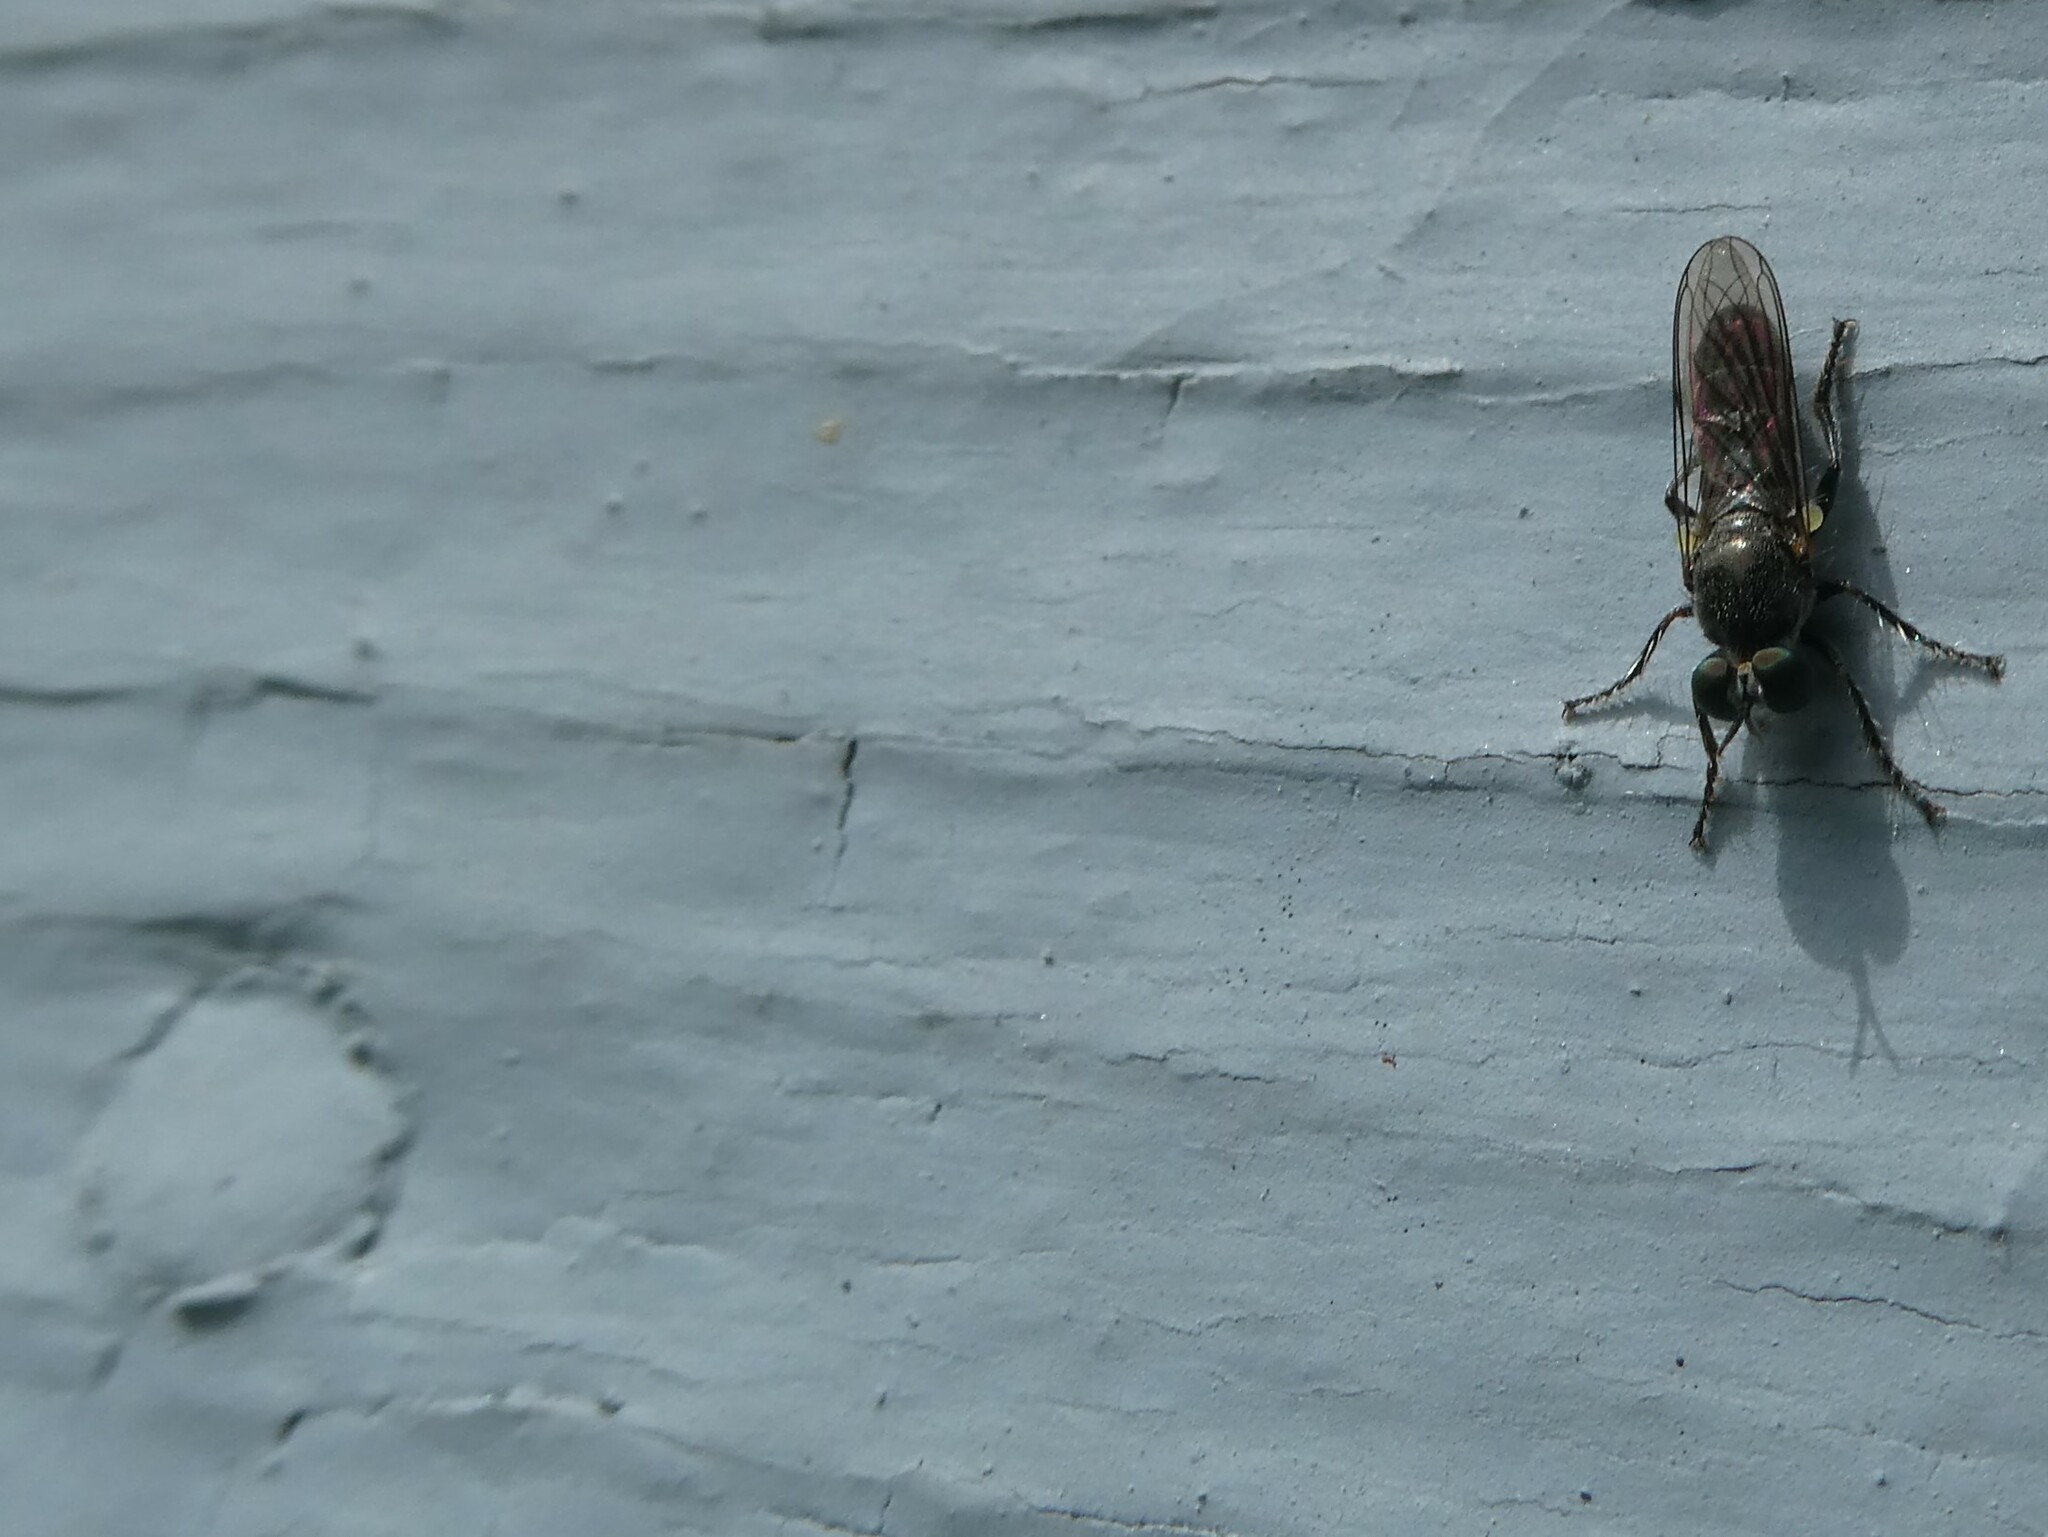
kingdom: Animalia
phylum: Arthropoda
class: Insecta
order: Diptera
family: Asilidae
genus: Atomosia
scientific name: Atomosia puella
